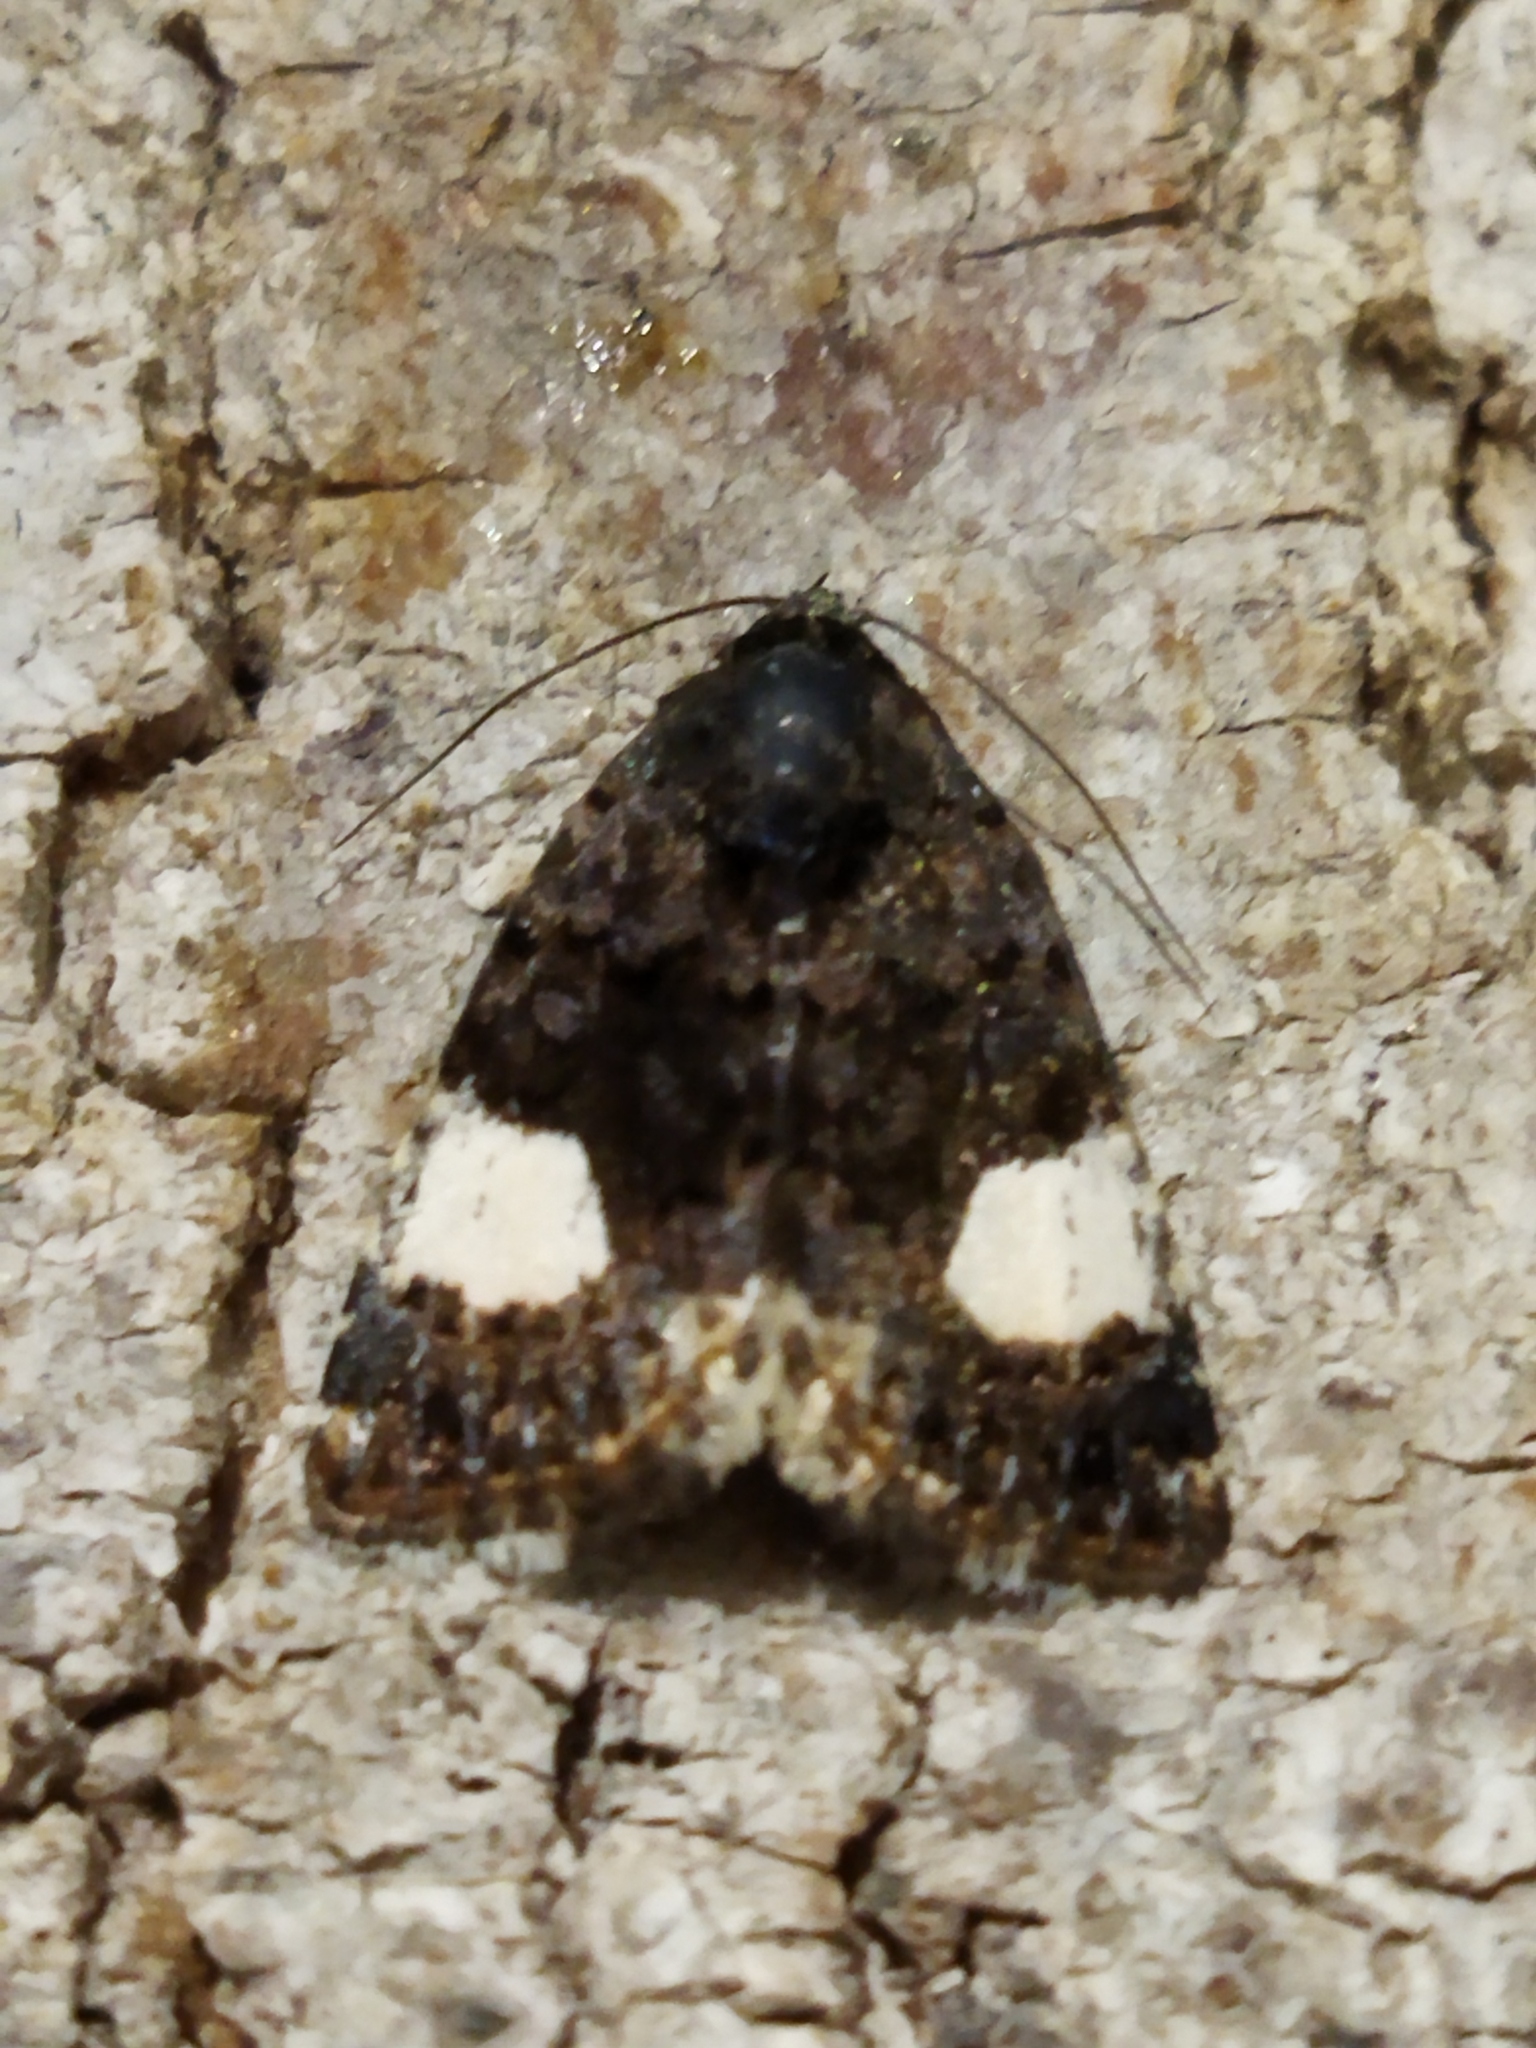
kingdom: Animalia
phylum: Arthropoda
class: Insecta
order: Lepidoptera
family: Erebidae
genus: Tyta
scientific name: Tyta luctuosa
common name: Four-spotted
